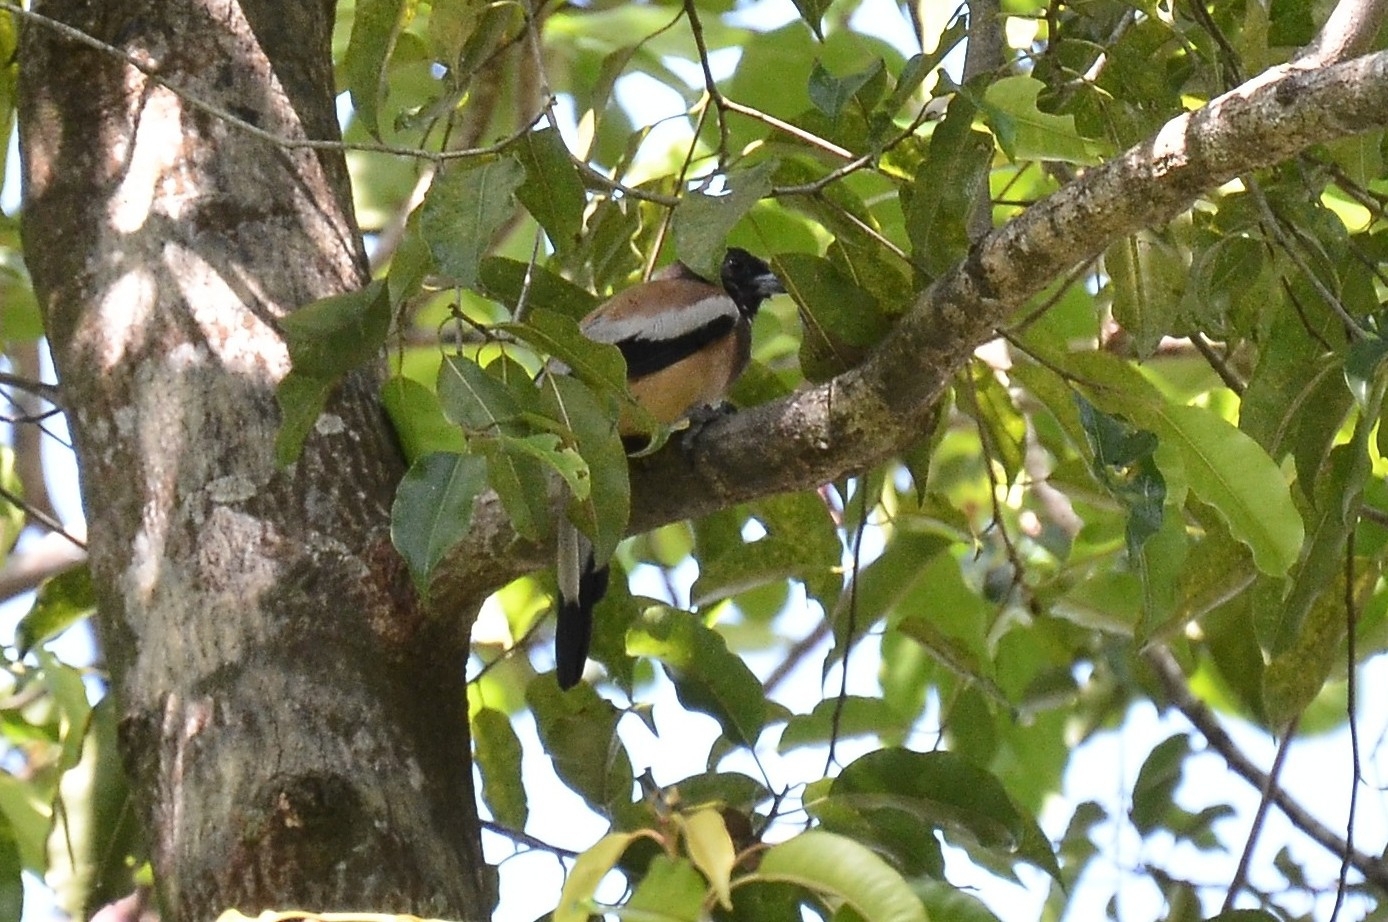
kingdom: Animalia
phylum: Chordata
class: Aves
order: Passeriformes
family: Corvidae
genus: Dendrocitta
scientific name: Dendrocitta vagabunda
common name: Rufous treepie
